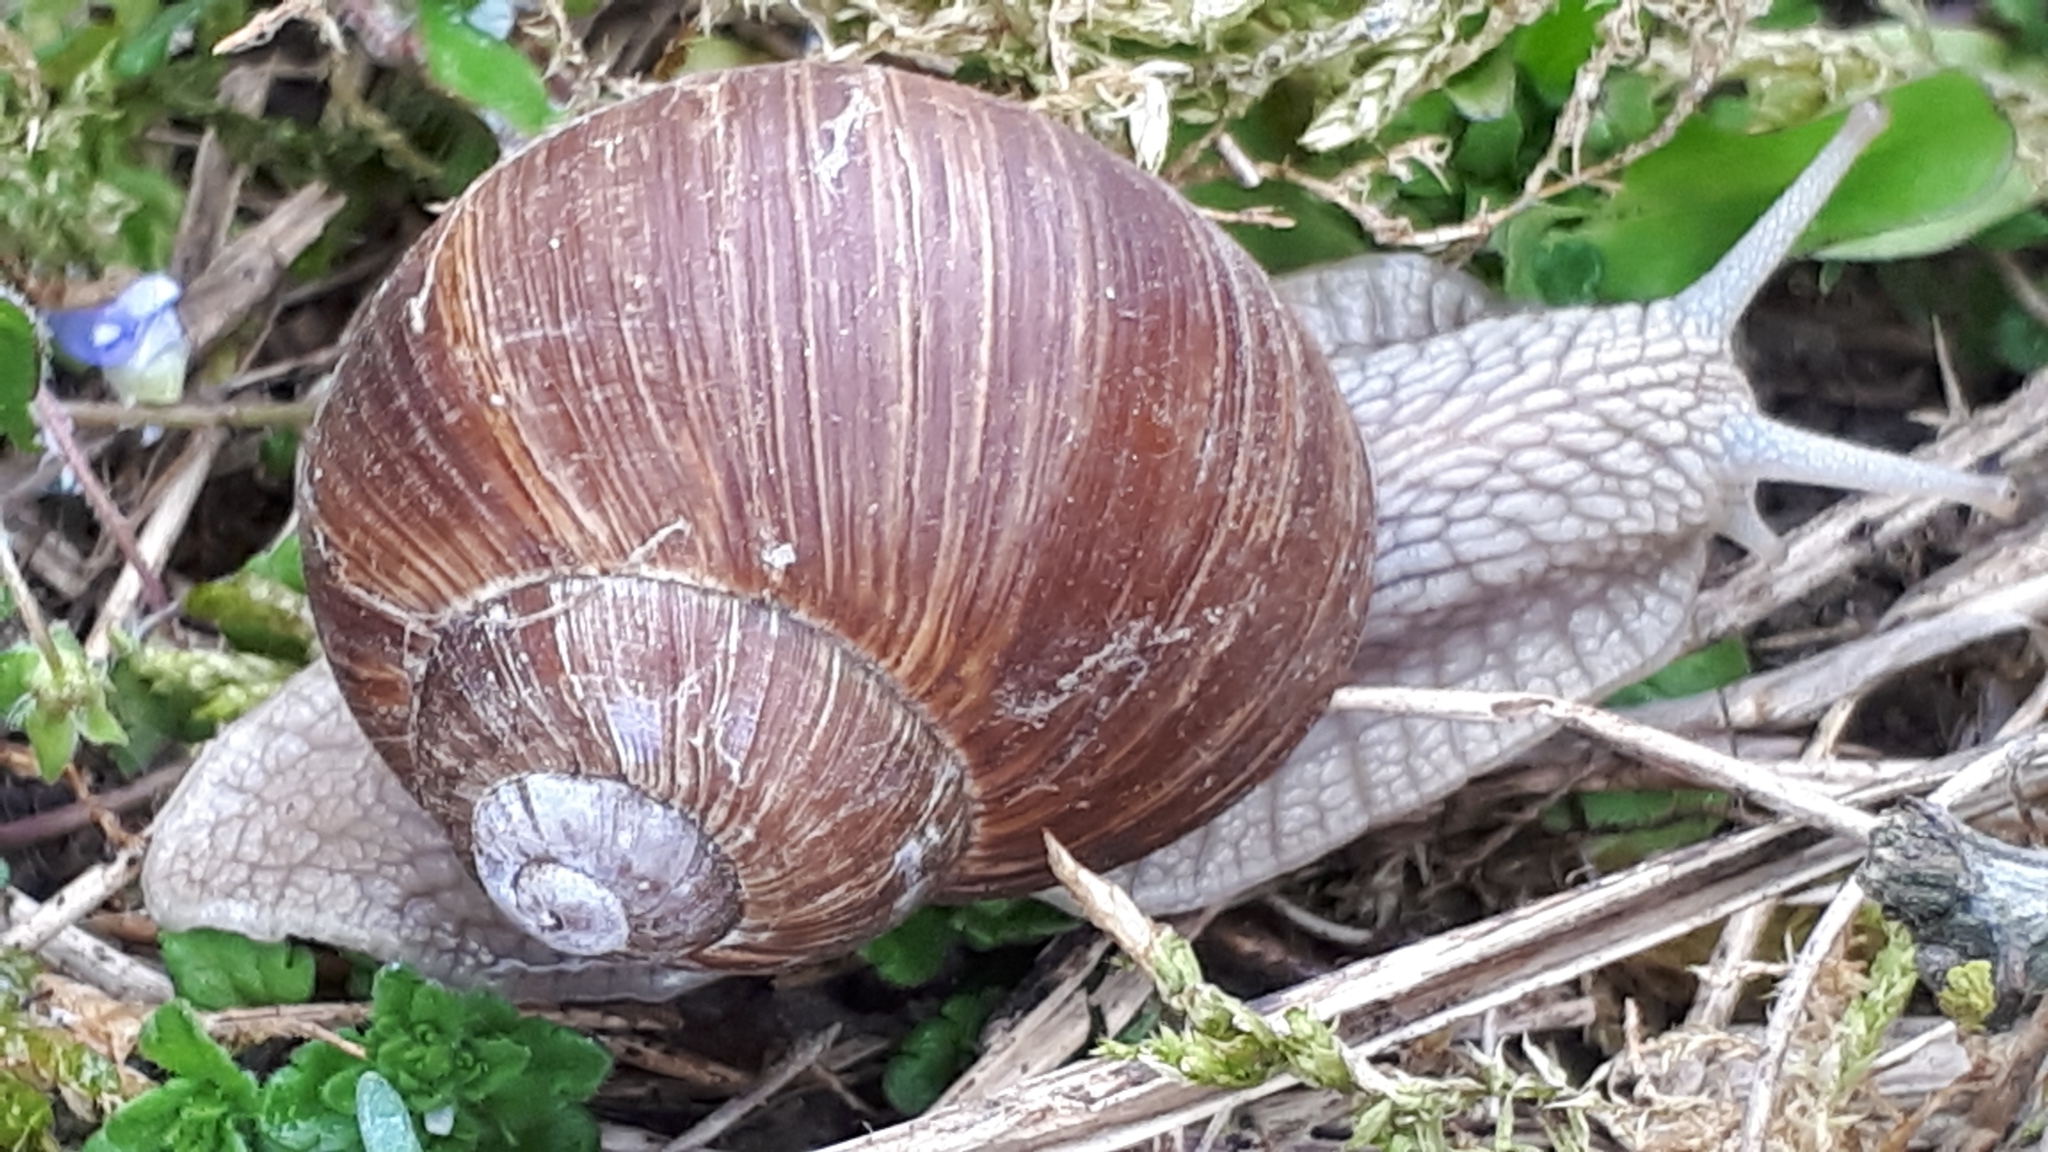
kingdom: Animalia
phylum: Mollusca
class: Gastropoda
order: Stylommatophora
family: Helicidae
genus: Helix
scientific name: Helix pomatia
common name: Roman snail
